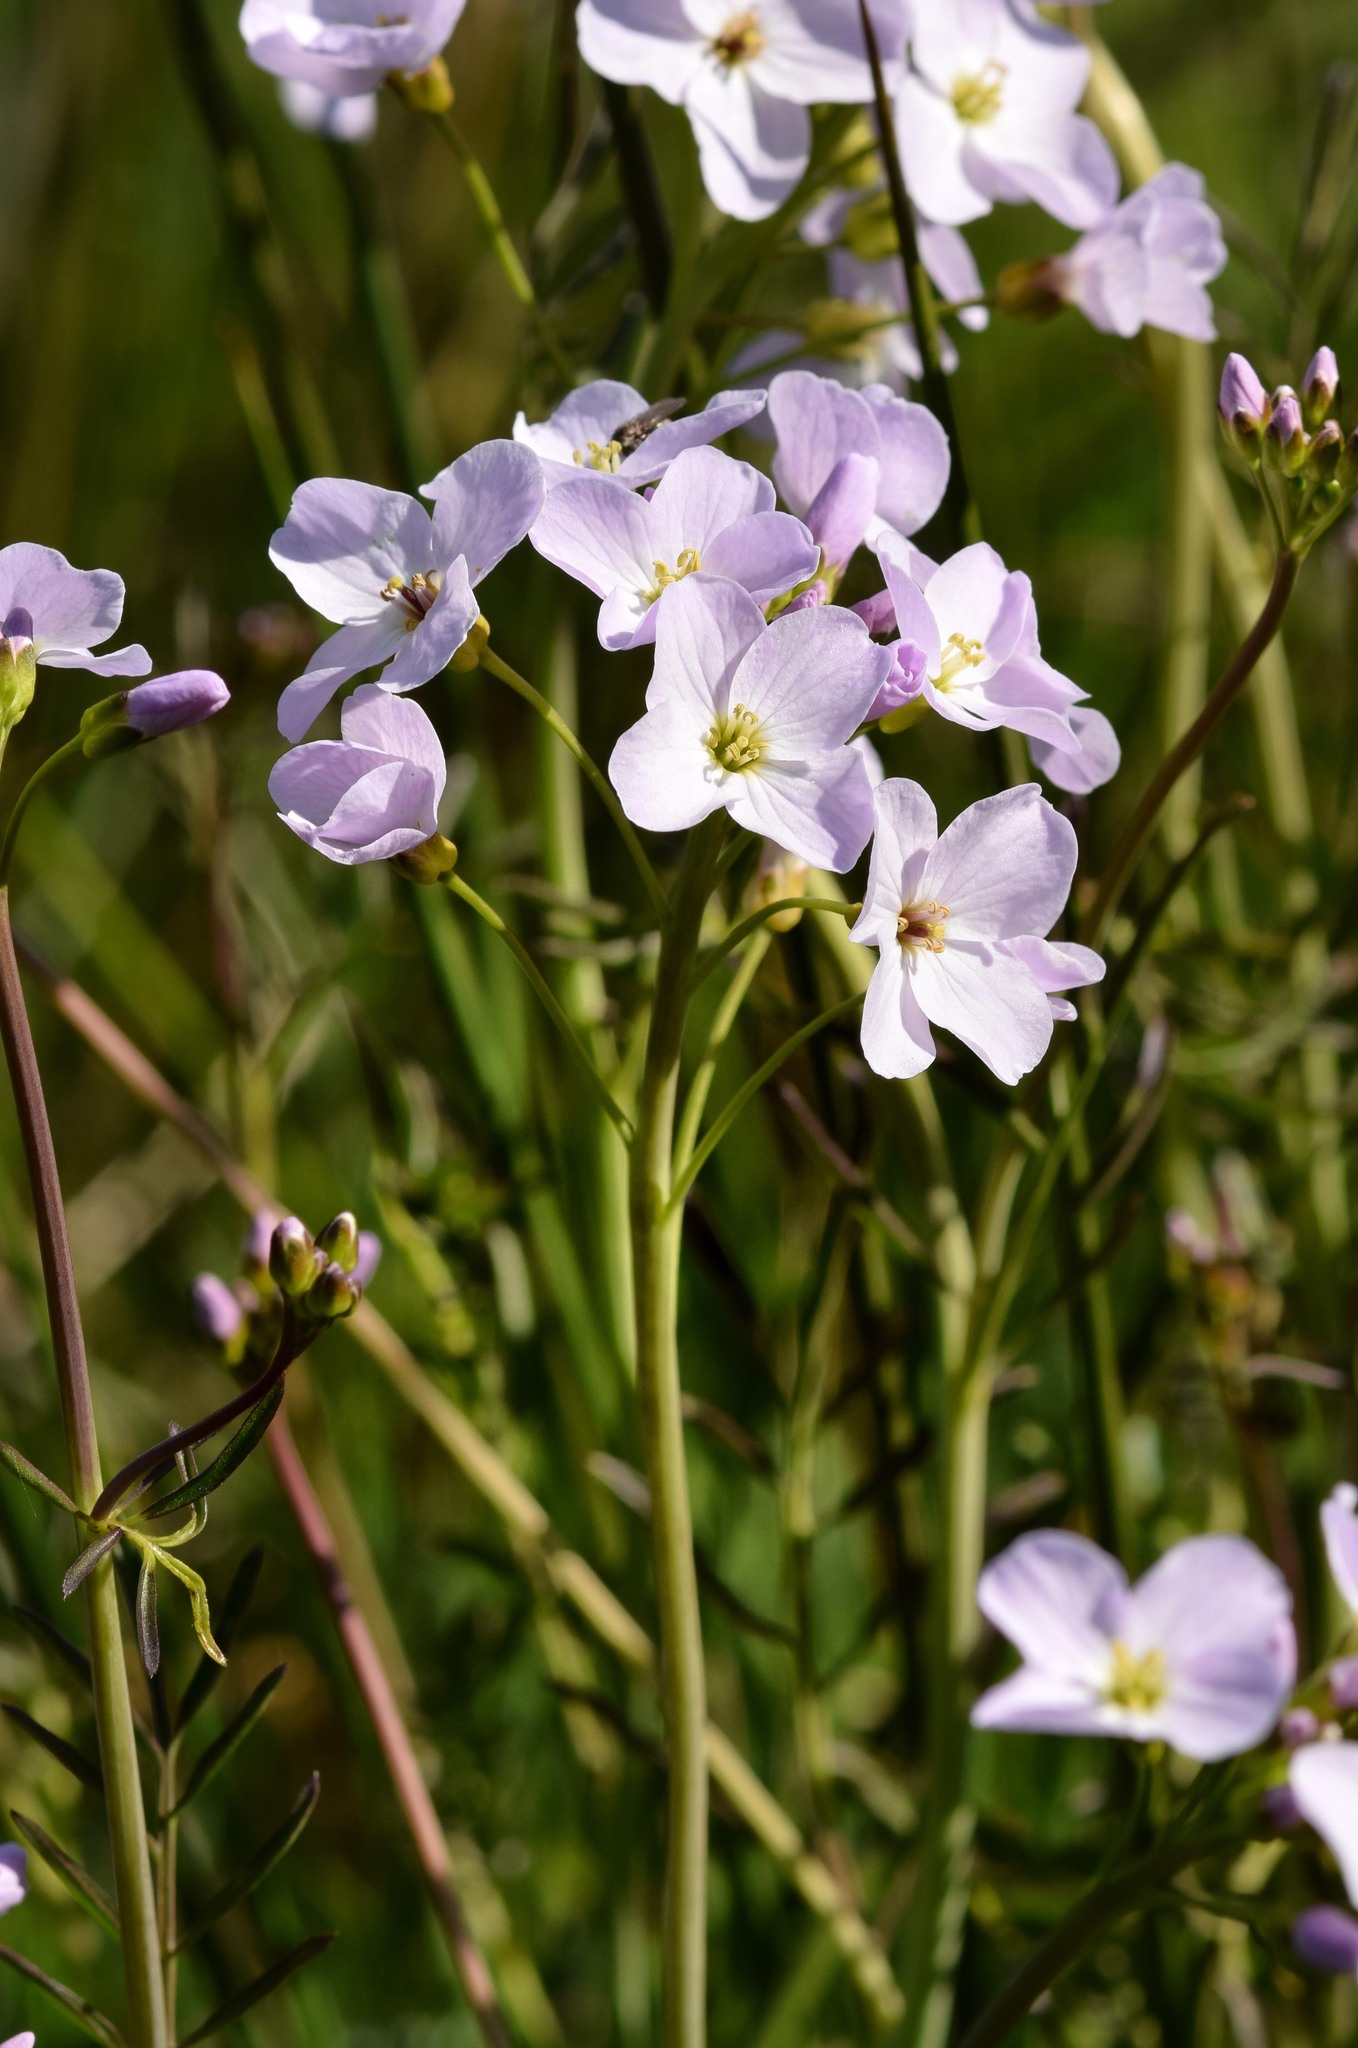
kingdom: Plantae
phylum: Tracheophyta
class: Magnoliopsida
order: Brassicales
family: Brassicaceae
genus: Cardamine
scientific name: Cardamine pratensis
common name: Cuckoo flower
